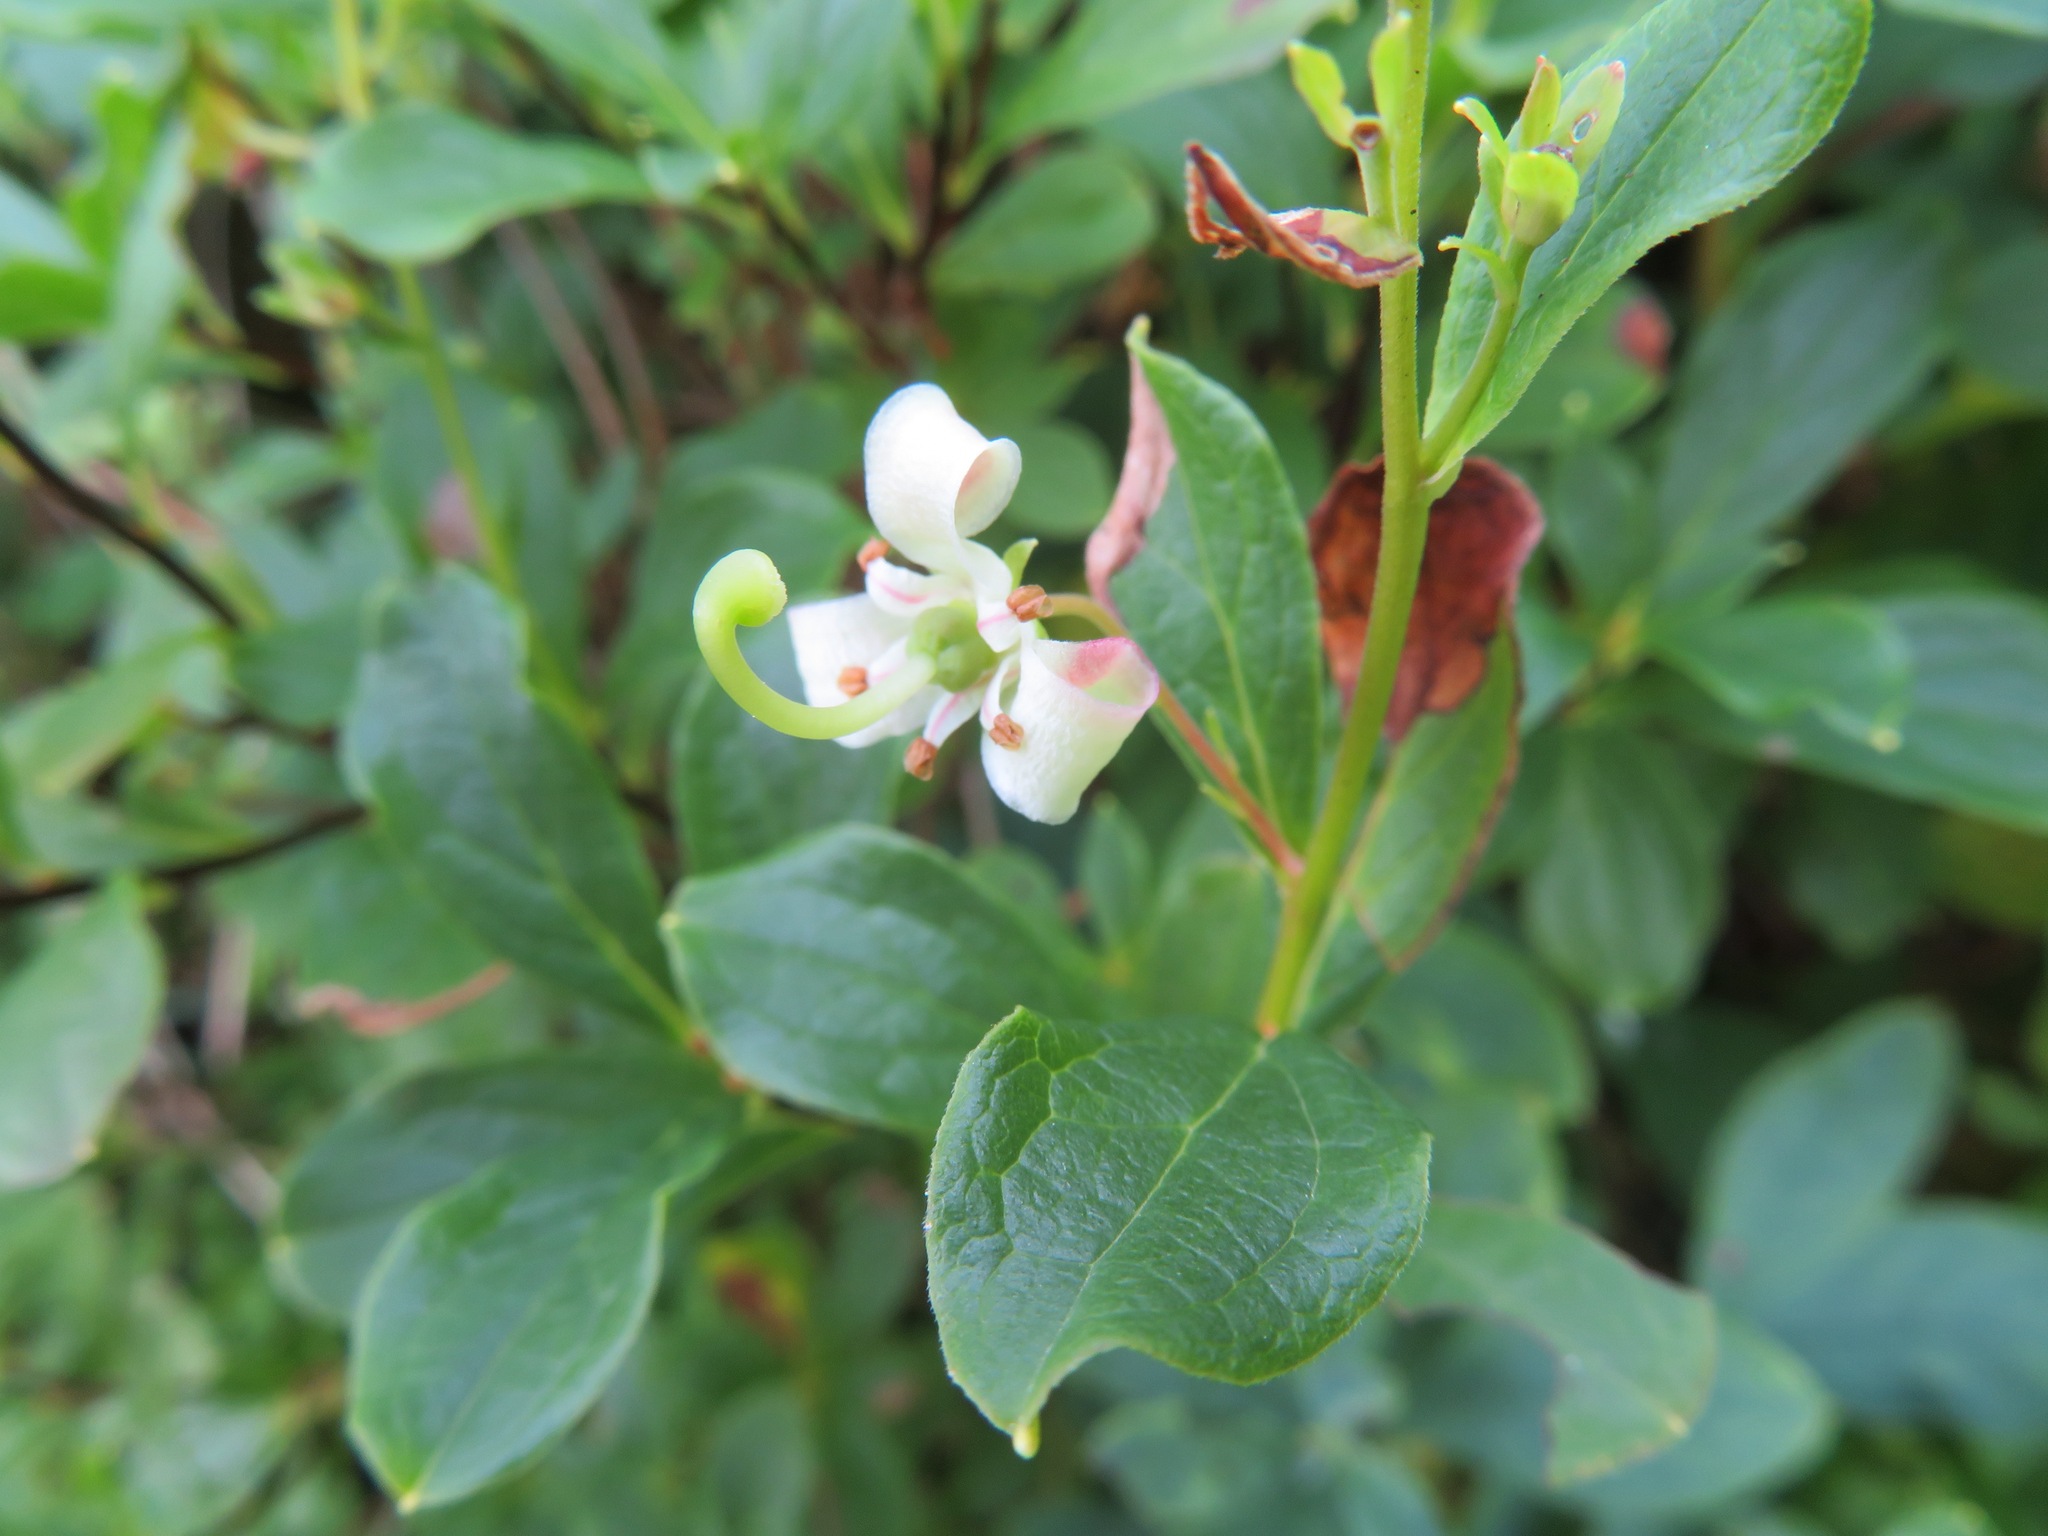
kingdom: Plantae
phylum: Tracheophyta
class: Magnoliopsida
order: Ericales
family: Ericaceae
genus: Elliottia
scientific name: Elliottia bracteata
